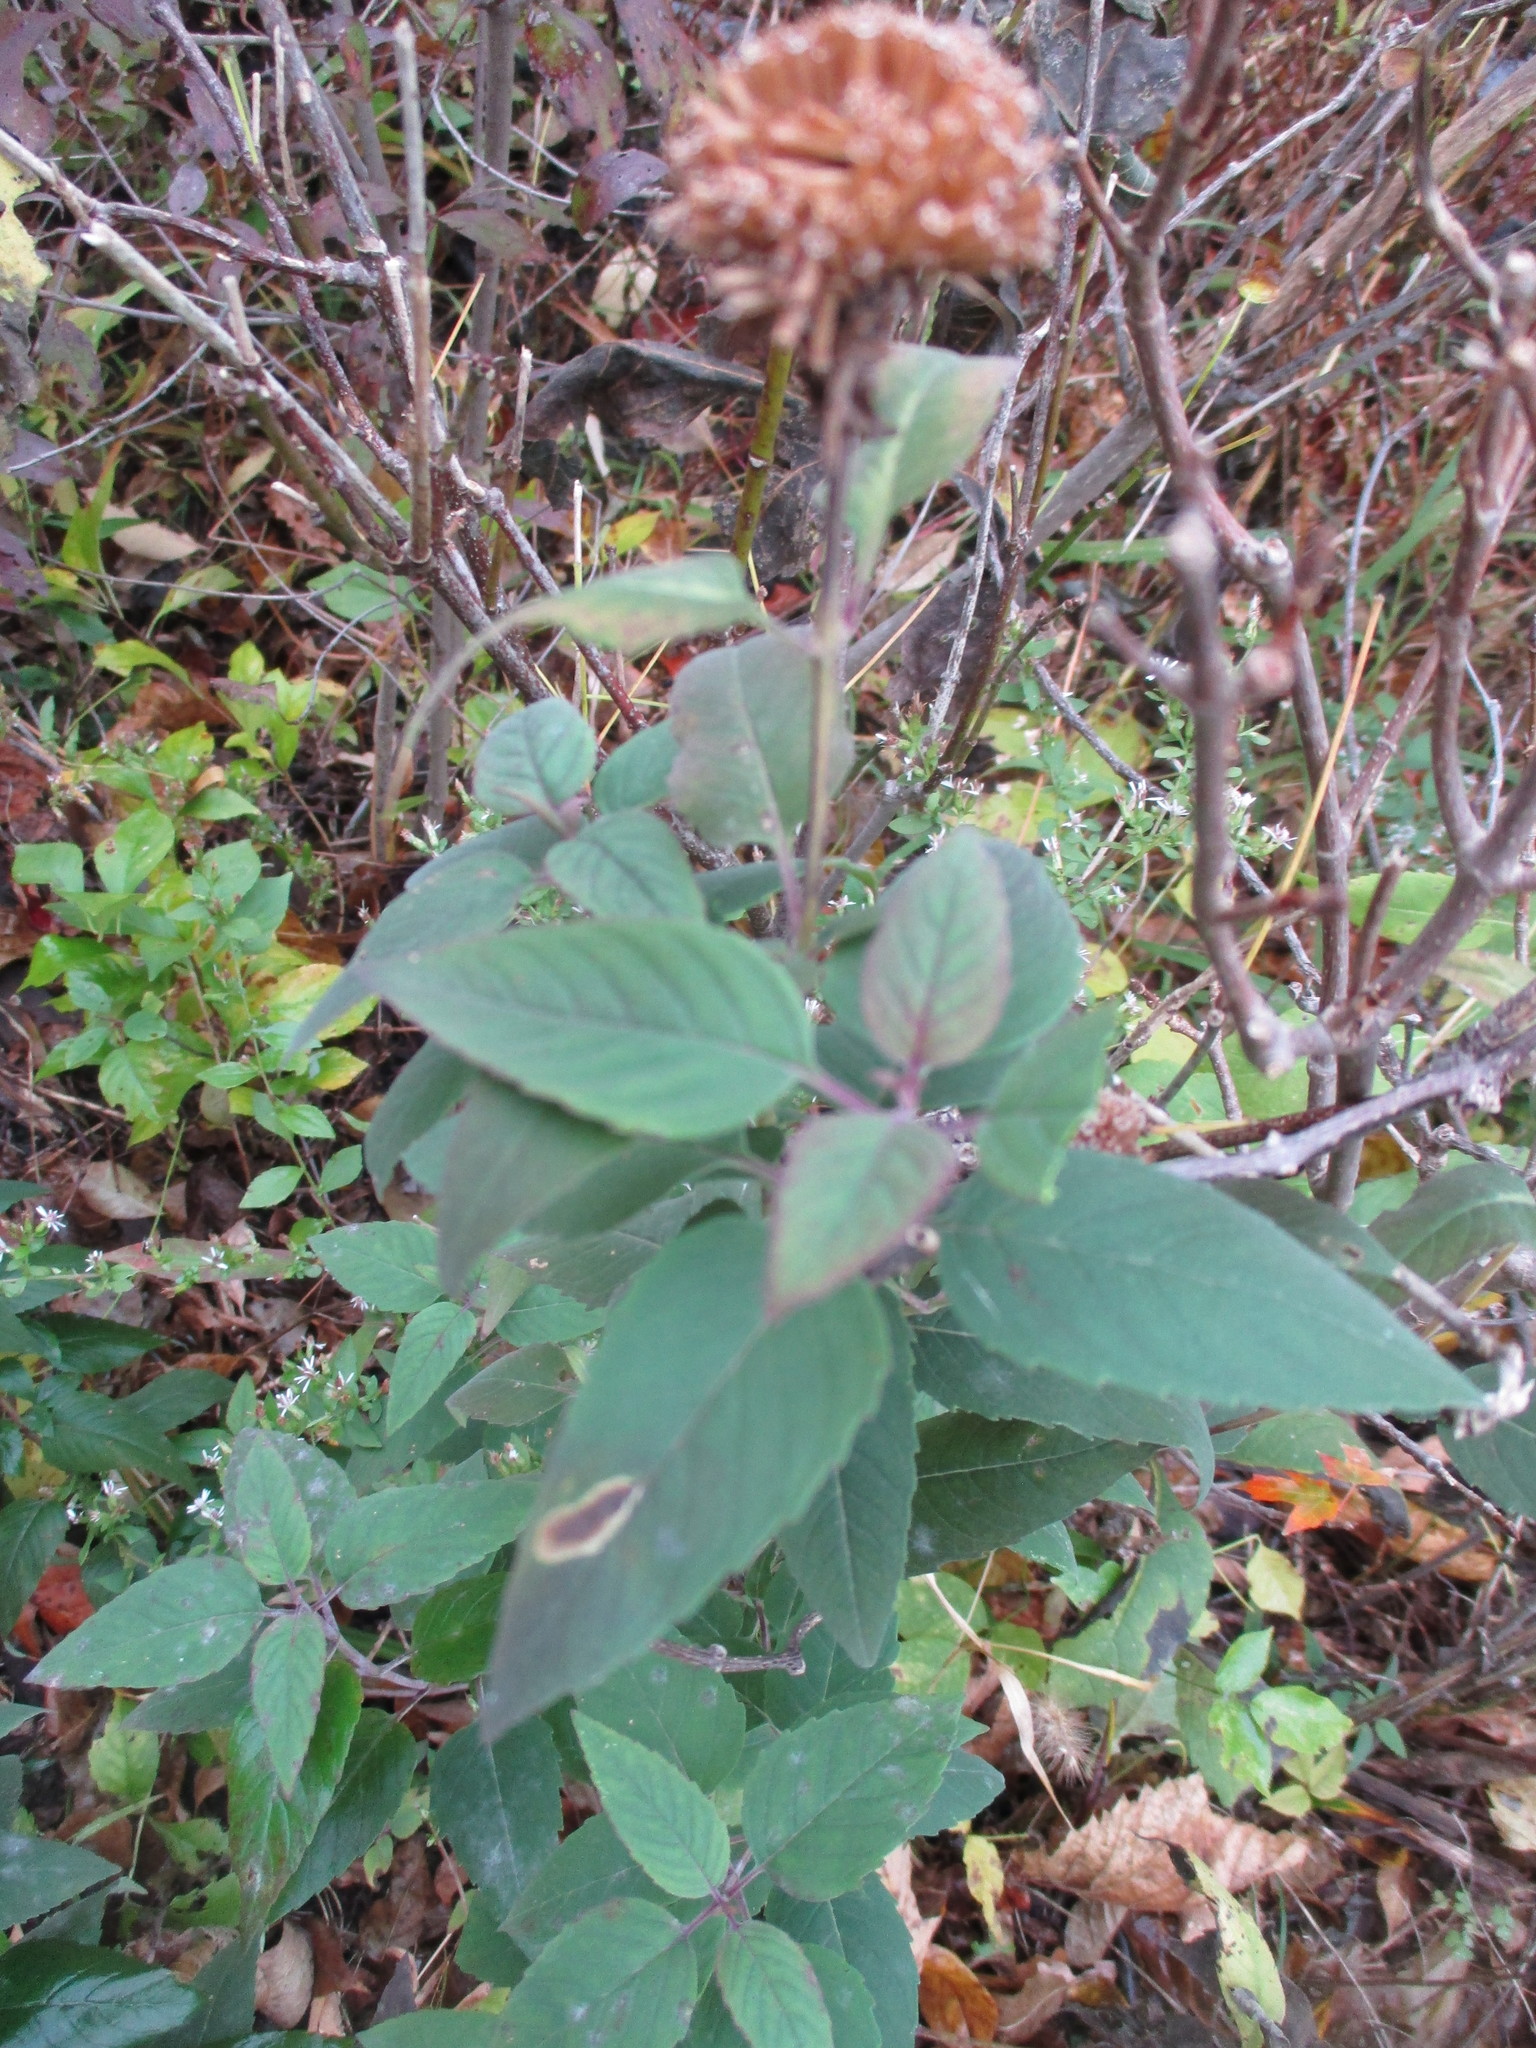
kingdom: Plantae
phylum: Tracheophyta
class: Magnoliopsida
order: Lamiales
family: Lamiaceae
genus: Monarda
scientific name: Monarda fistulosa
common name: Purple beebalm
